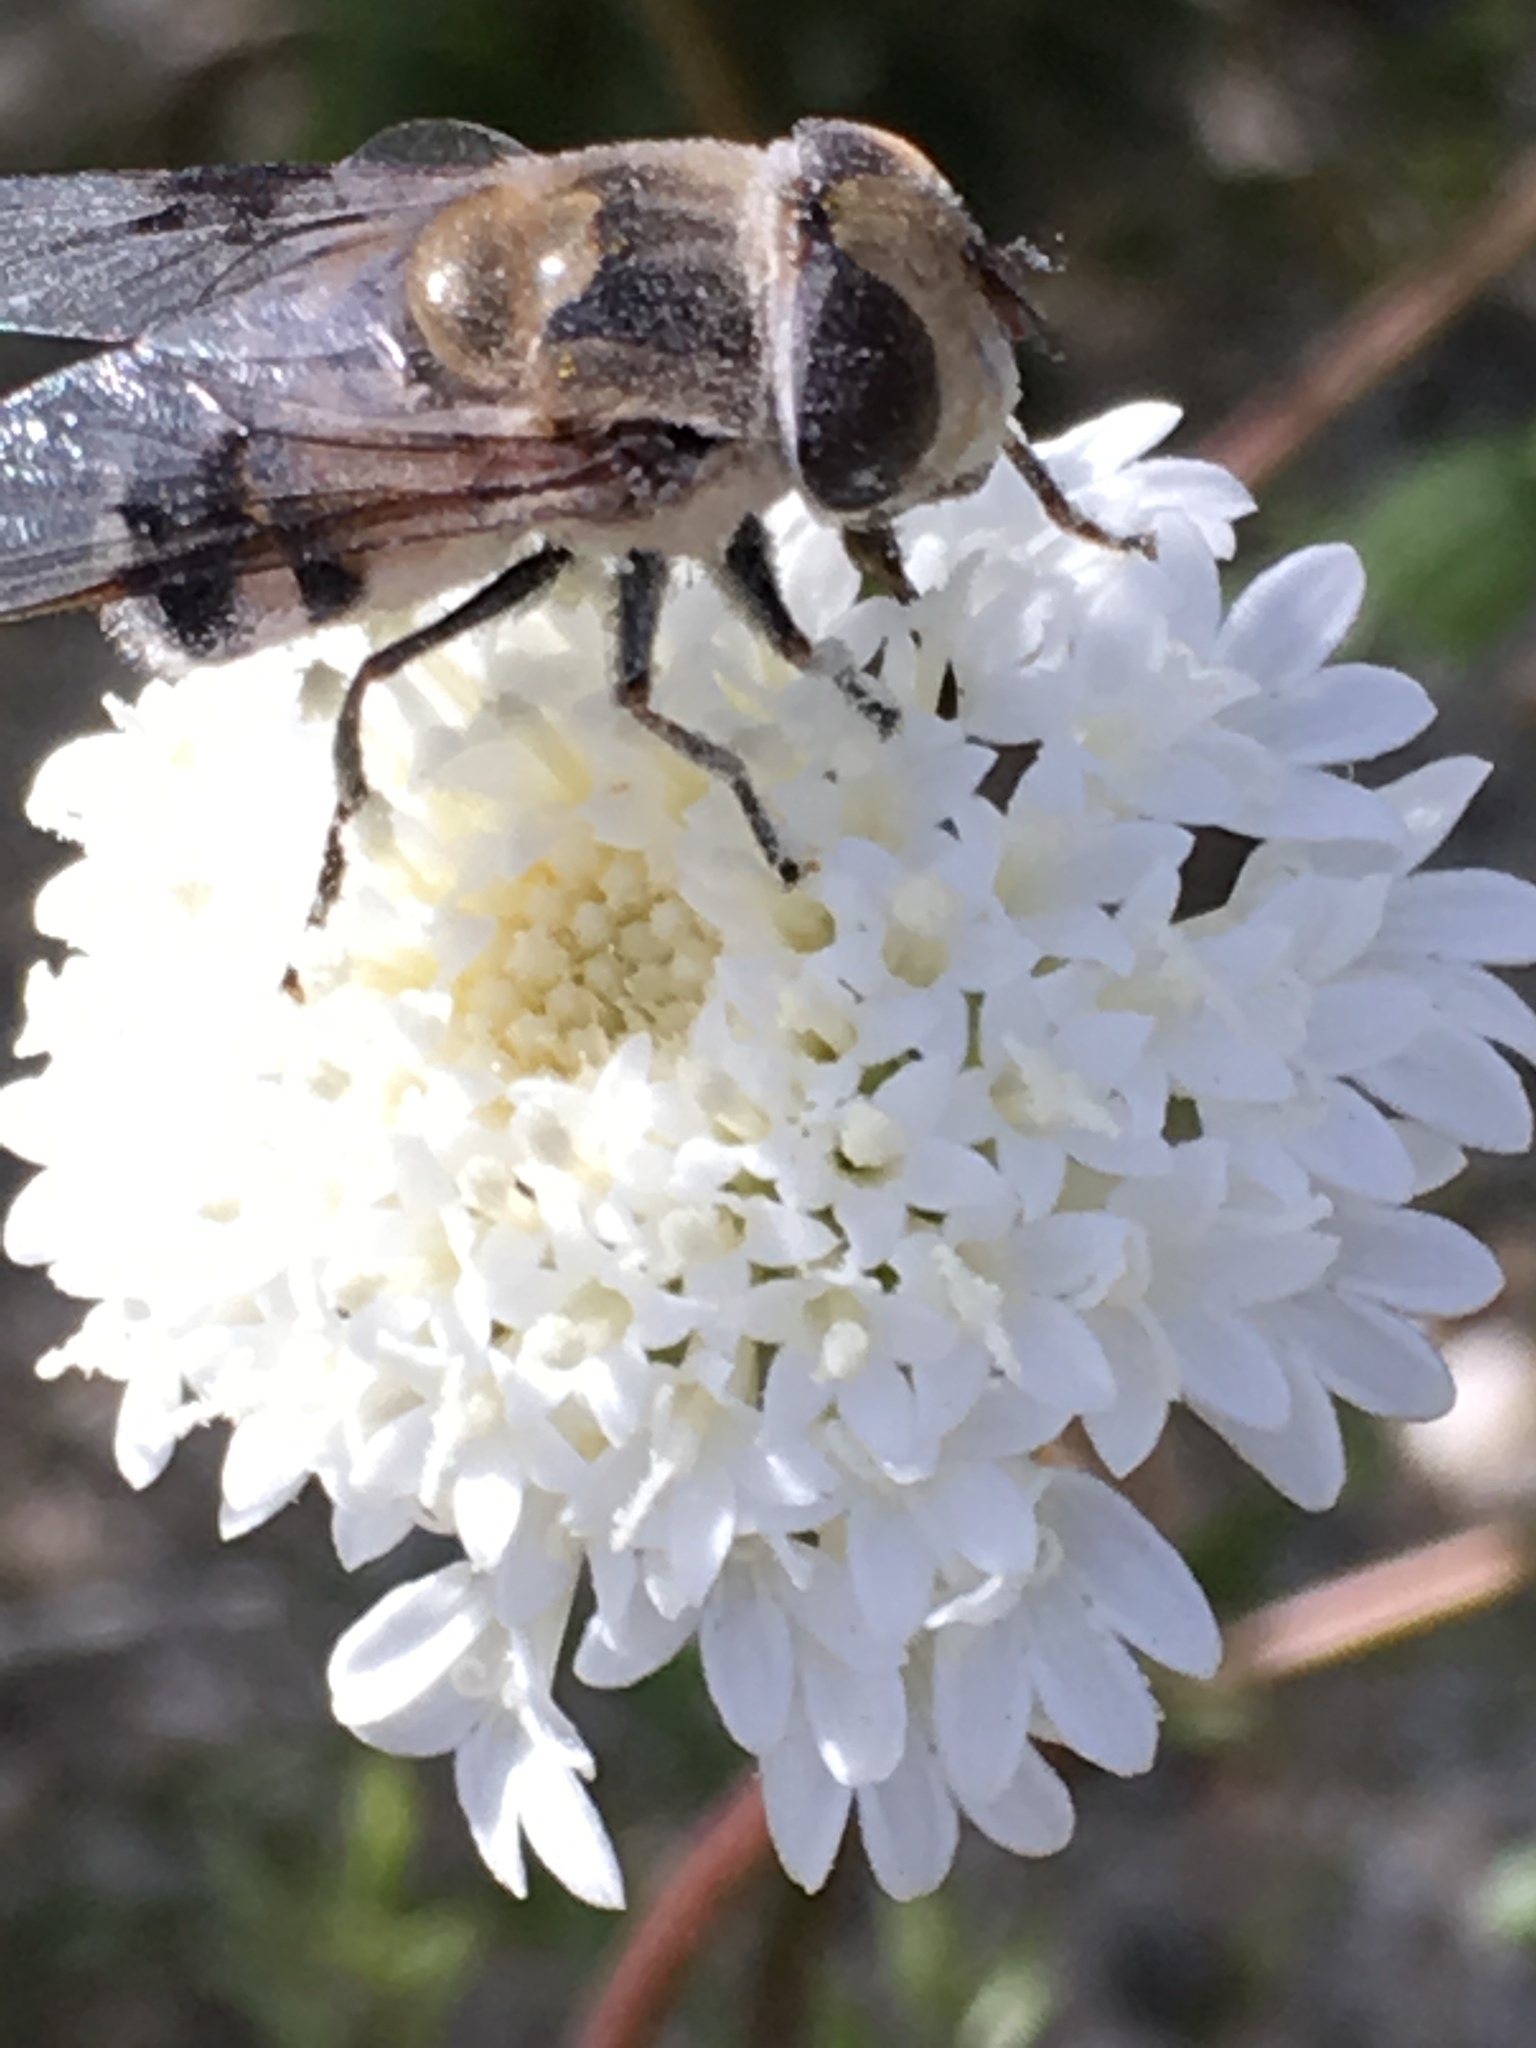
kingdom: Animalia
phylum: Arthropoda
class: Insecta
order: Diptera
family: Syrphidae
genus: Copestylum
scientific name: Copestylum apiciferum
